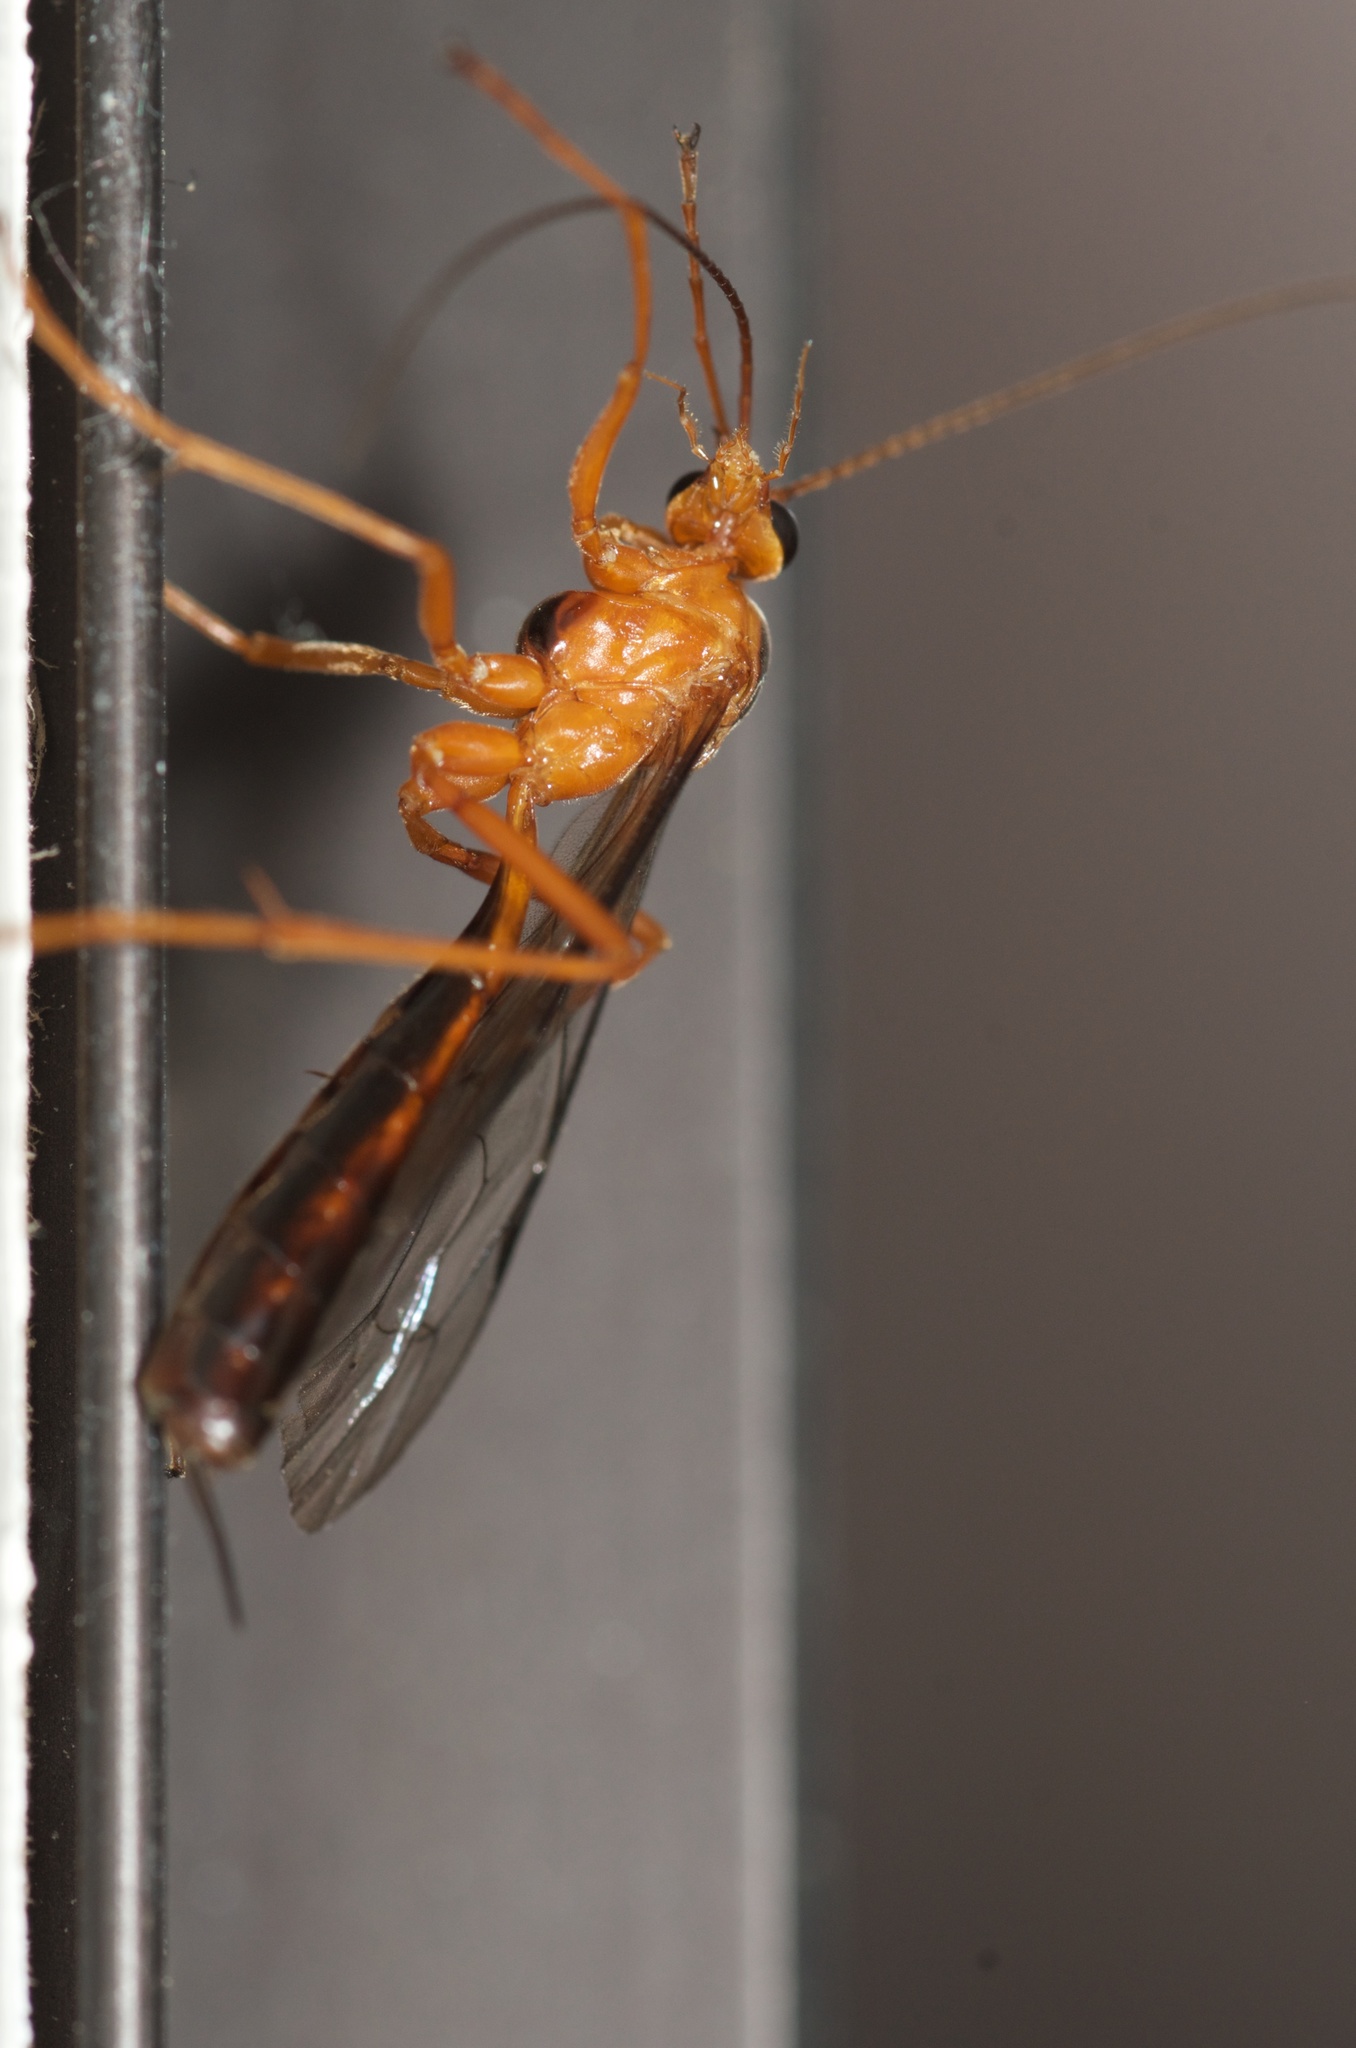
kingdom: Animalia
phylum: Arthropoda
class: Insecta
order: Hymenoptera
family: Ichneumonidae
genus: Netelia
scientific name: Netelia ephippiata
